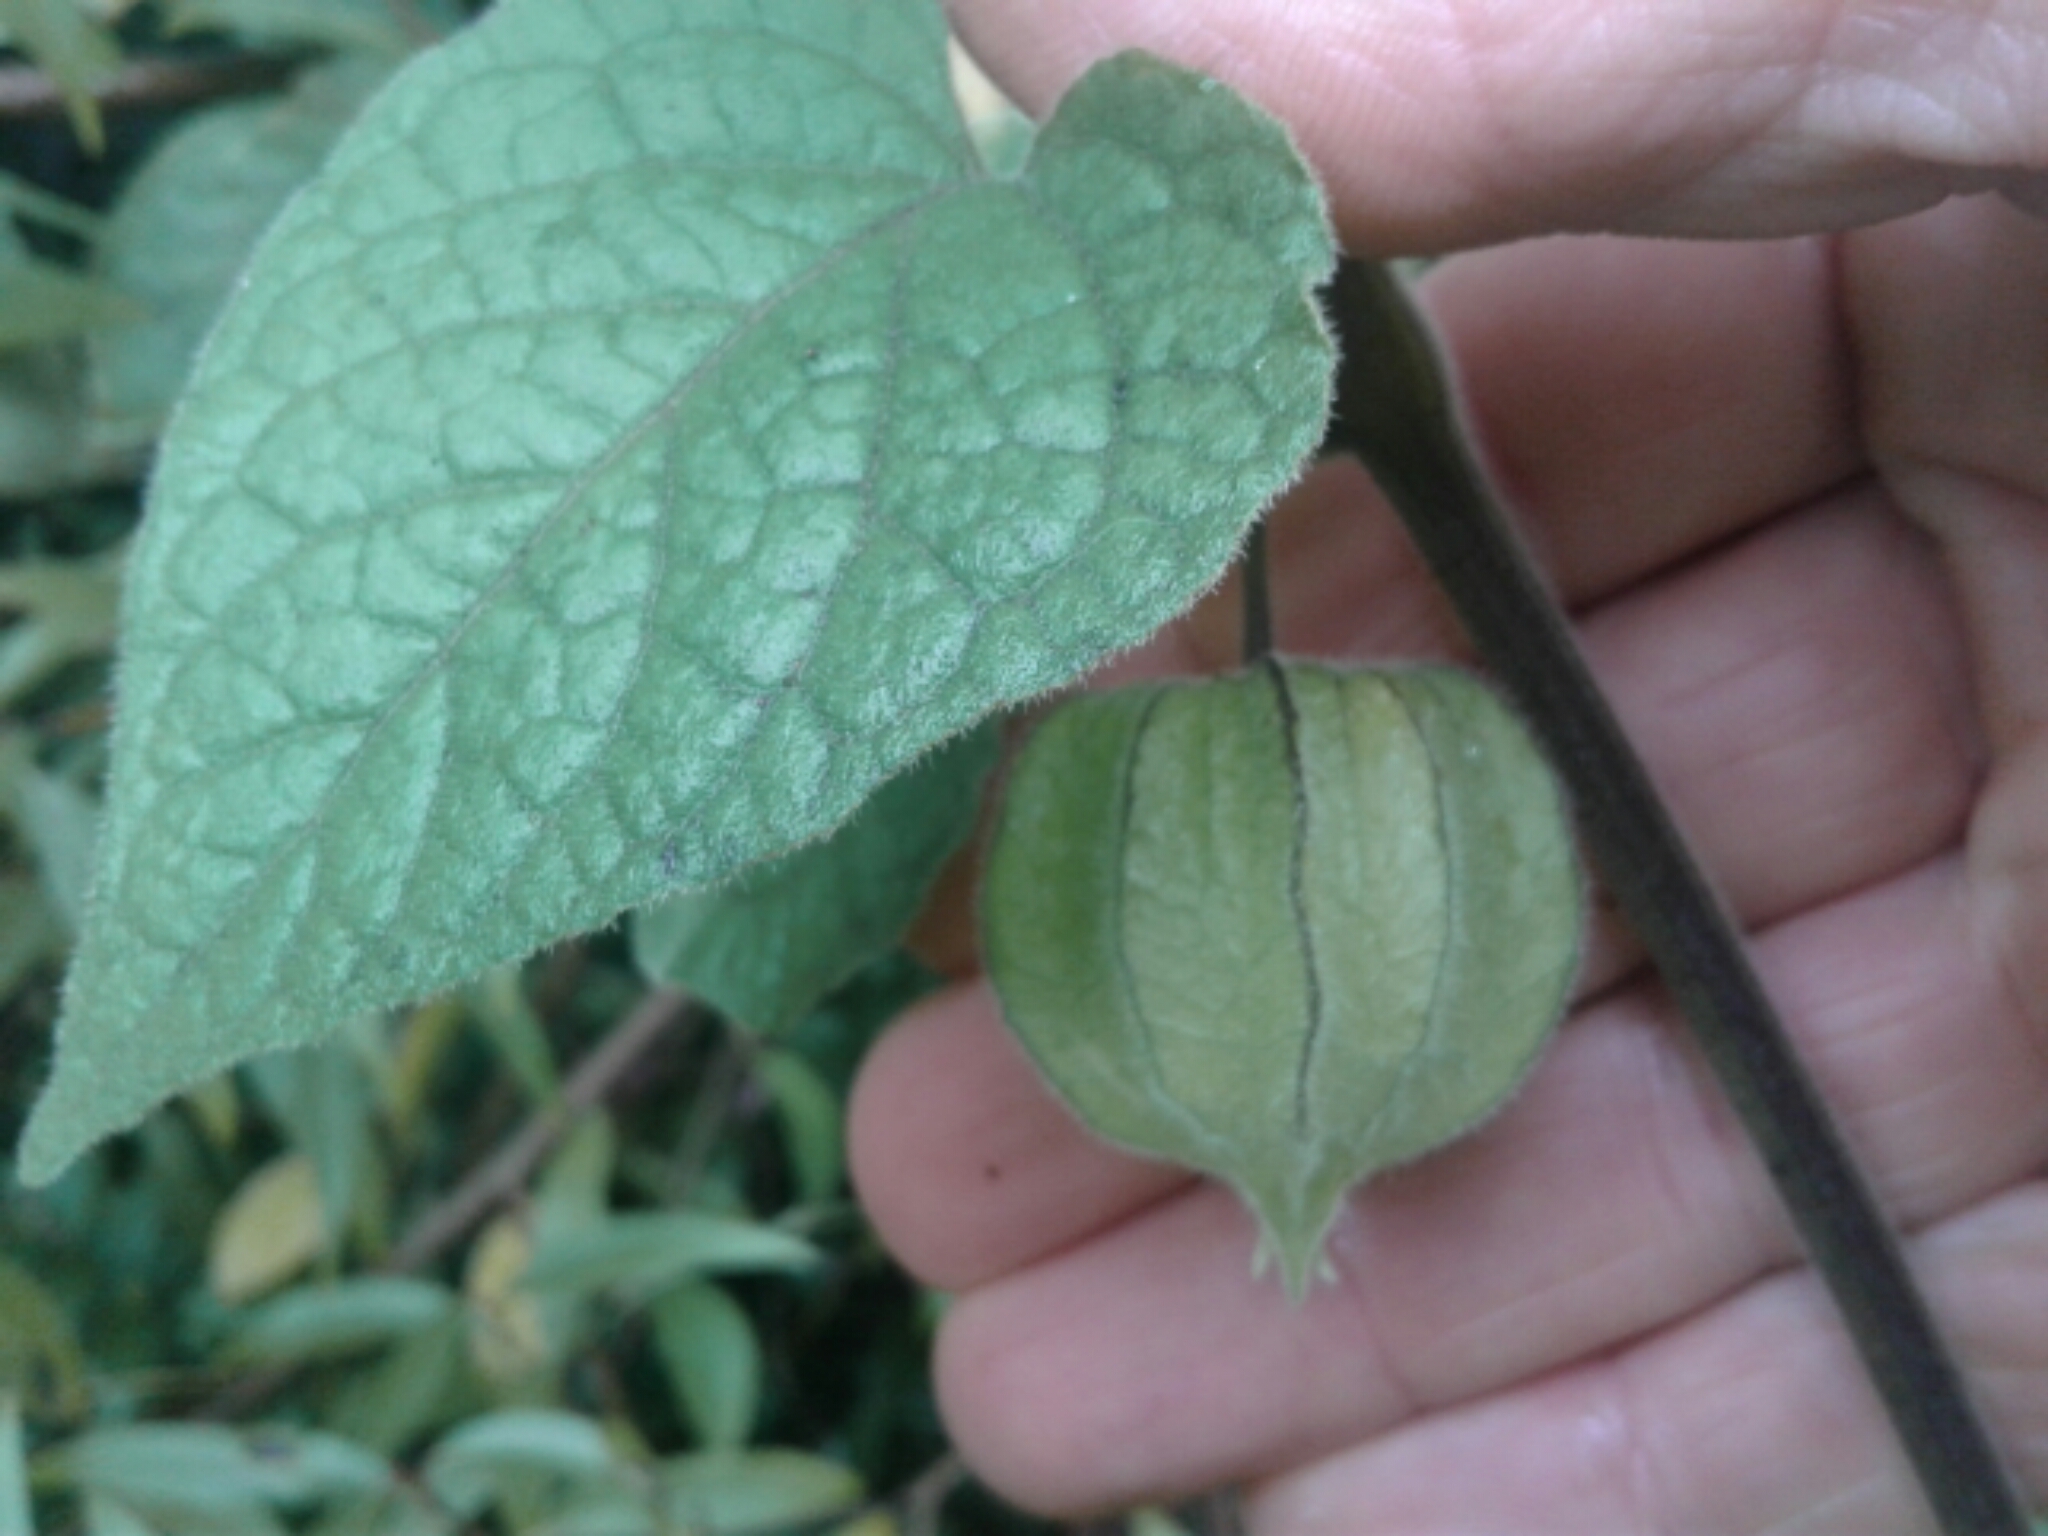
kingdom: Plantae
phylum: Tracheophyta
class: Magnoliopsida
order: Solanales
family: Solanaceae
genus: Physalis
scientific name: Physalis peruviana
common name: Cape-gooseberry
